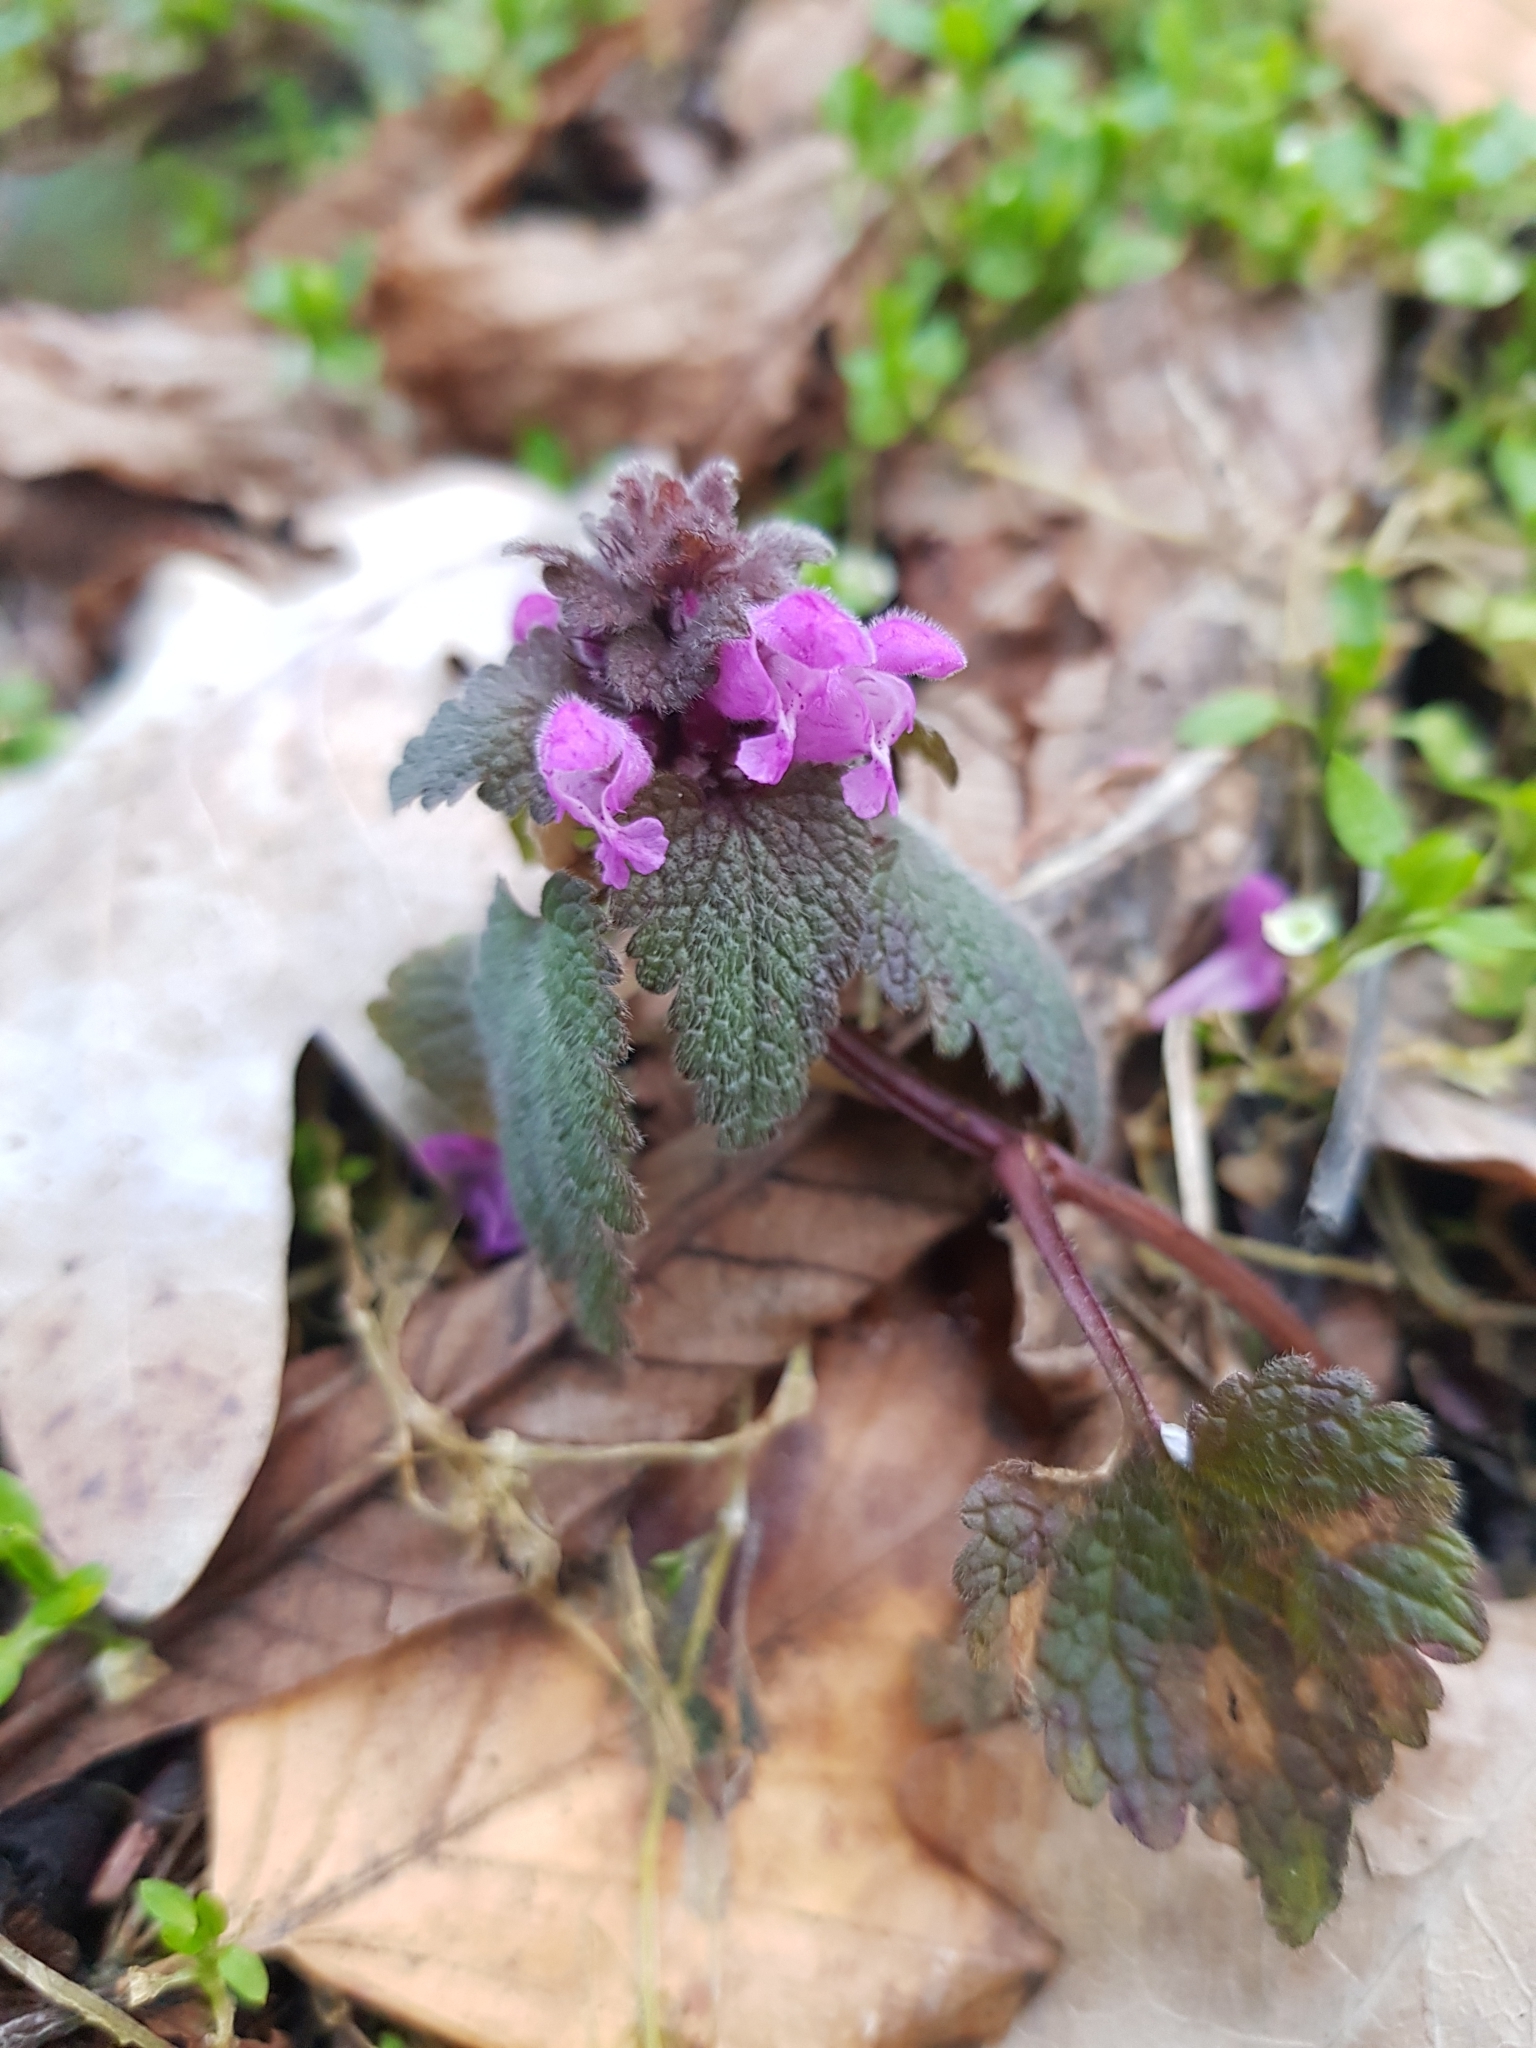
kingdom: Plantae
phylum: Tracheophyta
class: Magnoliopsida
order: Lamiales
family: Lamiaceae
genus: Lamium
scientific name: Lamium purpureum
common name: Red dead-nettle
